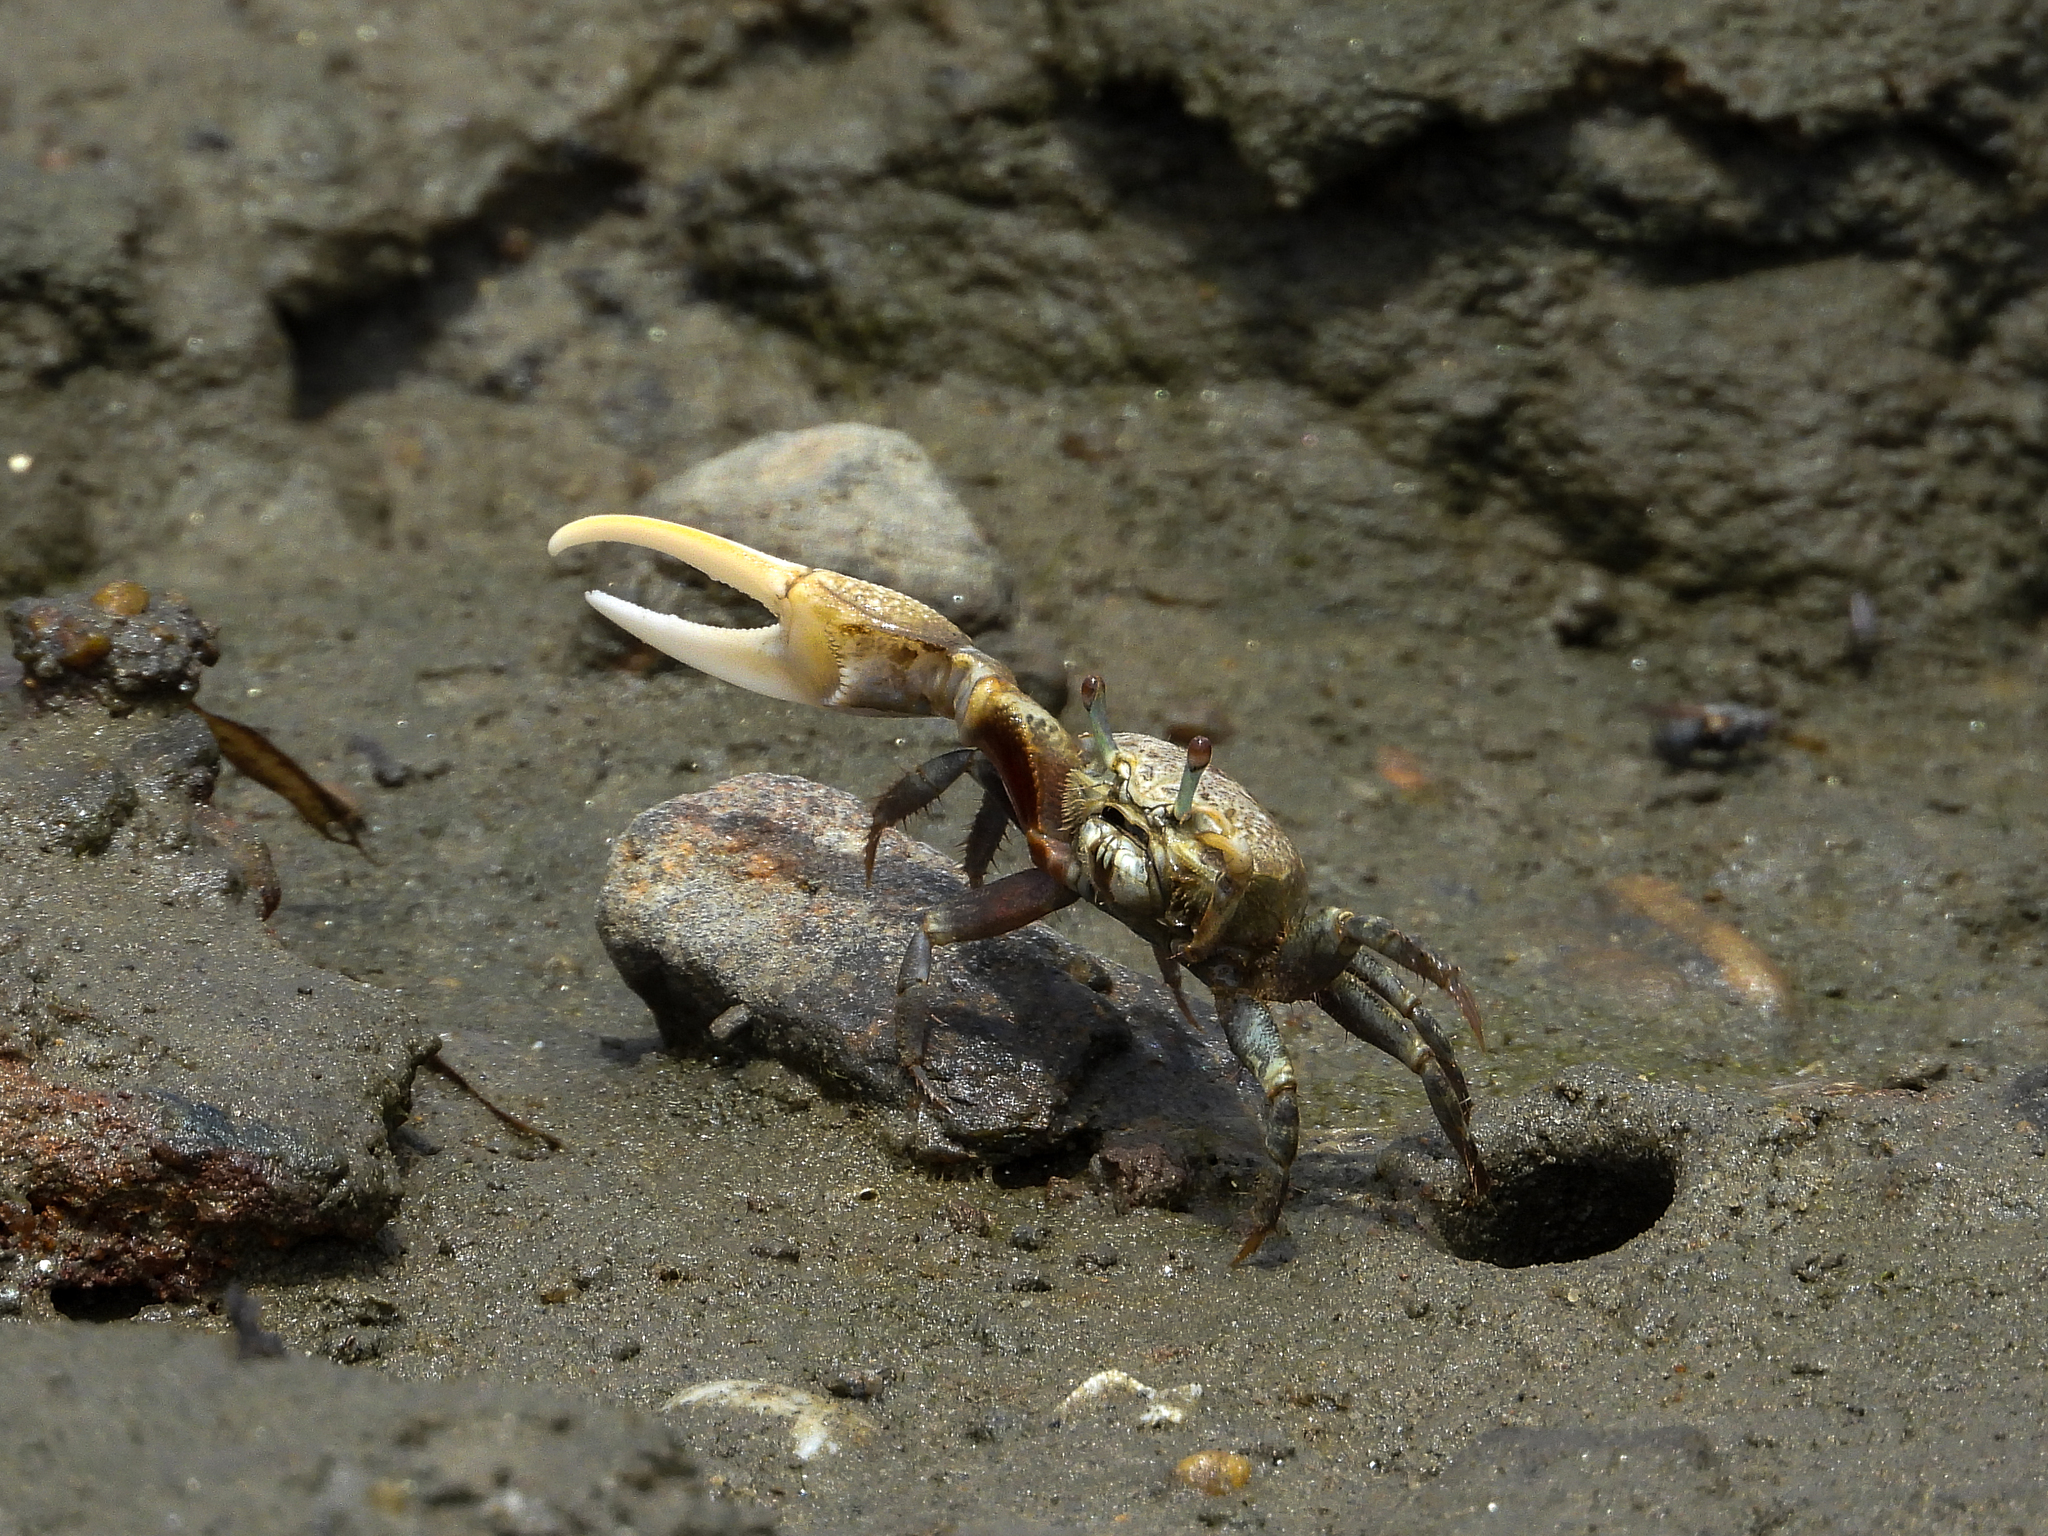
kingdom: Animalia
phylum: Arthropoda
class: Malacostraca
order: Decapoda
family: Ocypodidae
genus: Leptuca
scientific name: Leptuca crenulata
